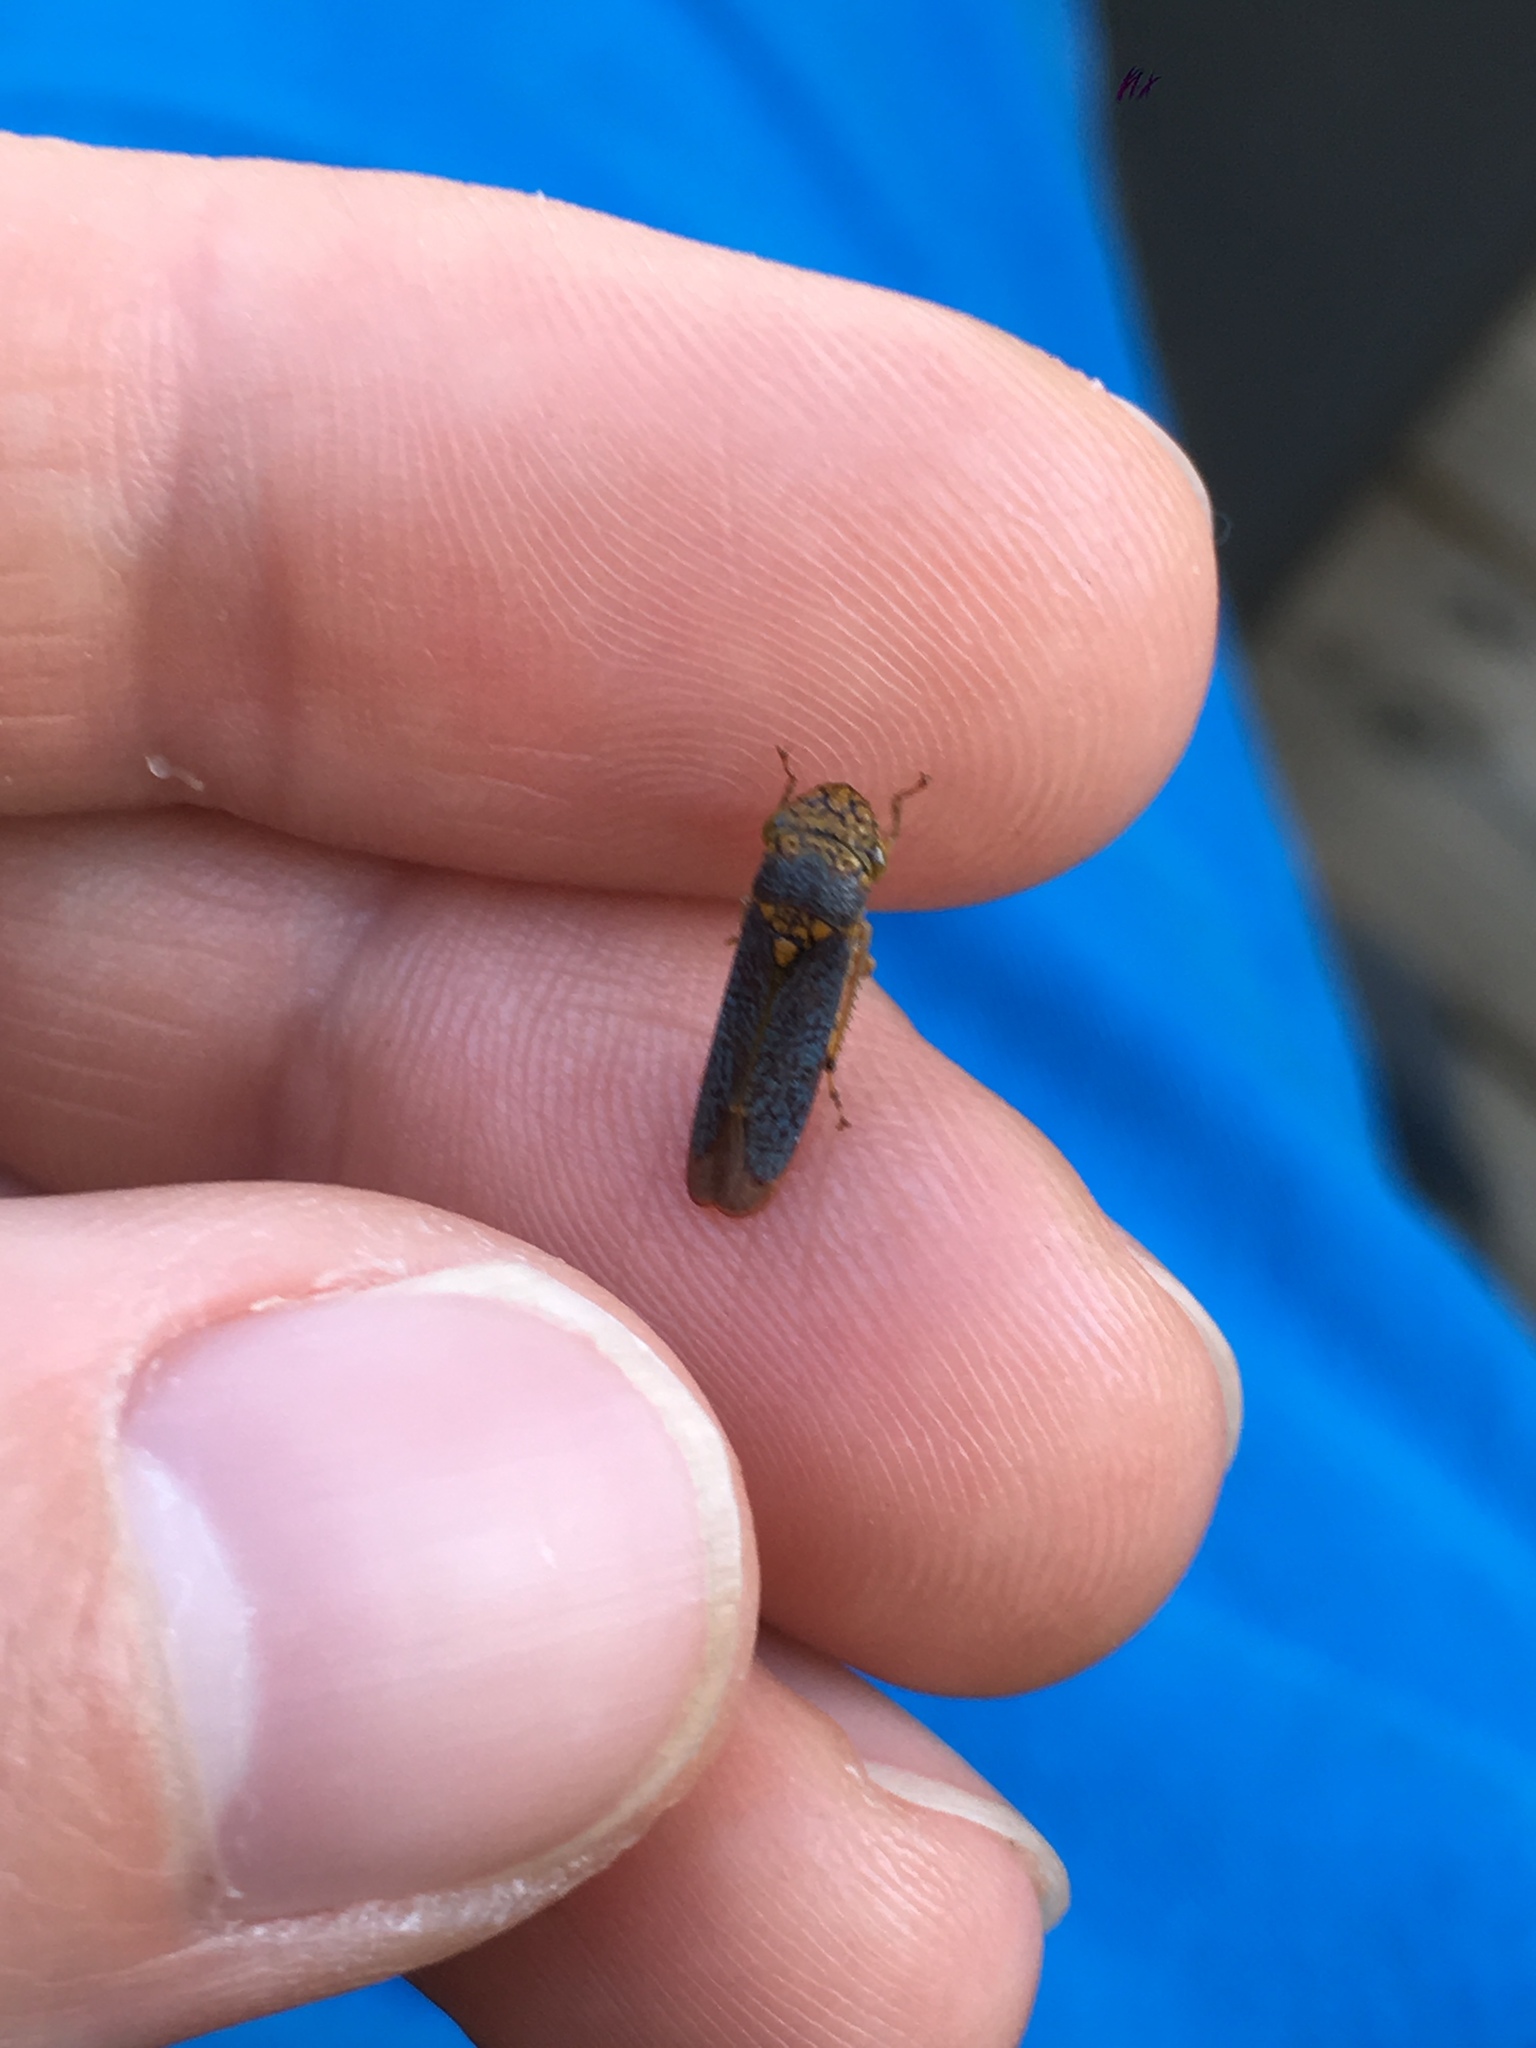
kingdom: Animalia
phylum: Arthropoda
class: Insecta
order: Hemiptera
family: Cicadellidae
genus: Oncometopia
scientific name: Oncometopia orbona
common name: Broad-headed sharpshooter
